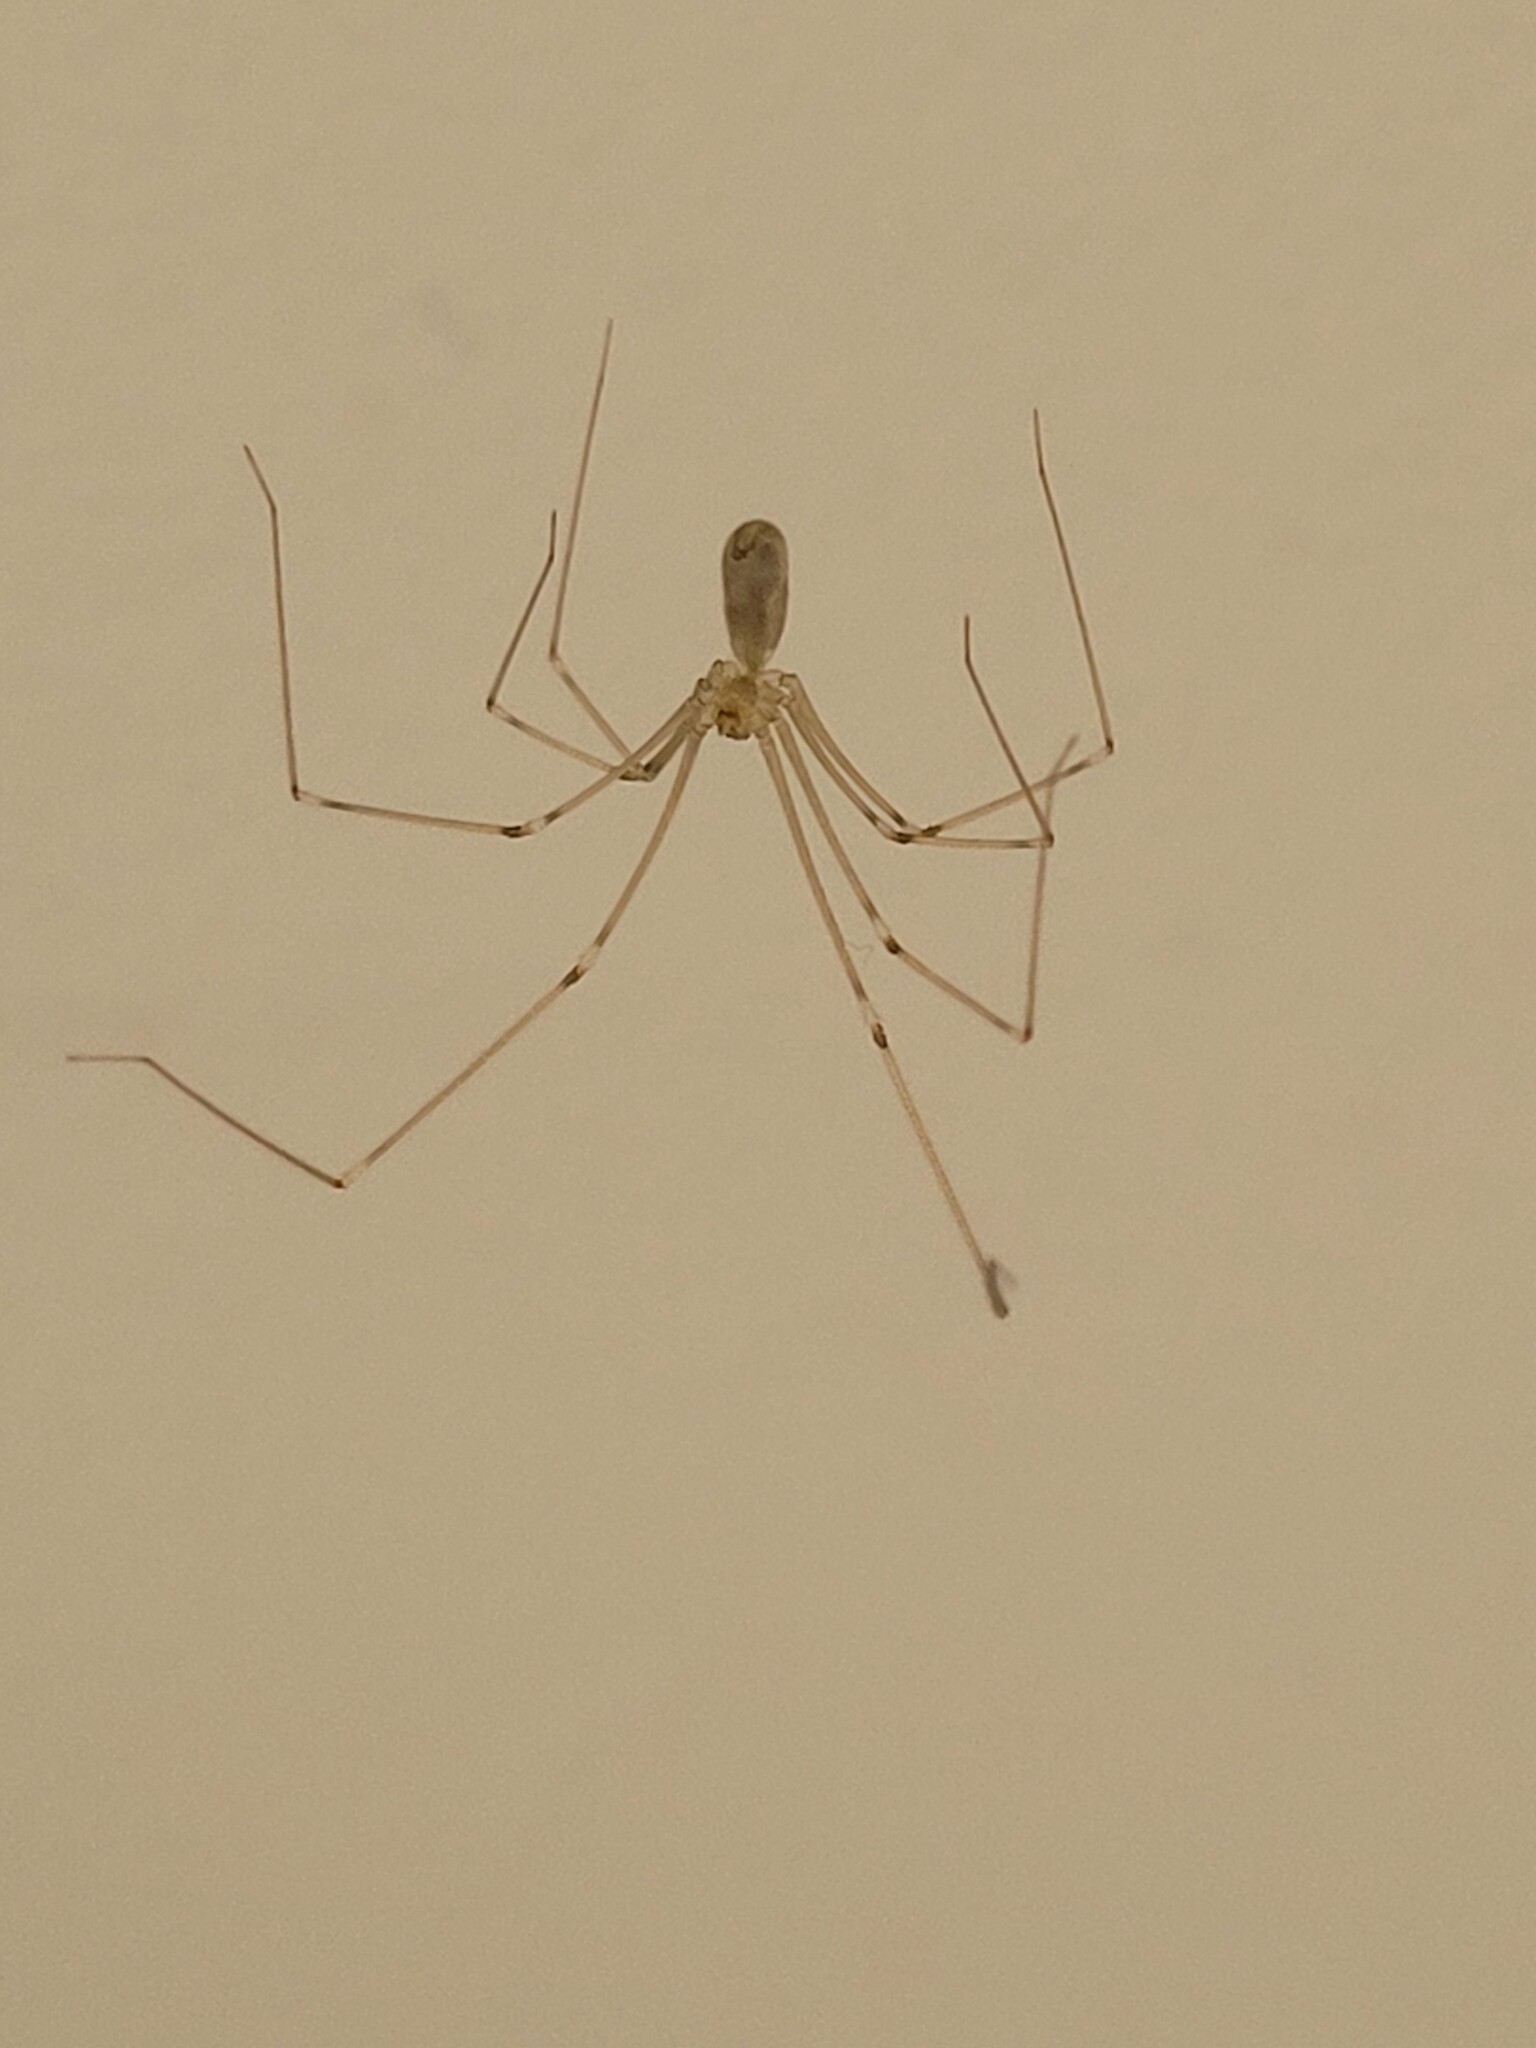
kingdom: Animalia
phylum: Arthropoda
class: Arachnida
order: Araneae
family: Pholcidae
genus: Pholcus
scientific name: Pholcus phalangioides
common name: Longbodied cellar spider
